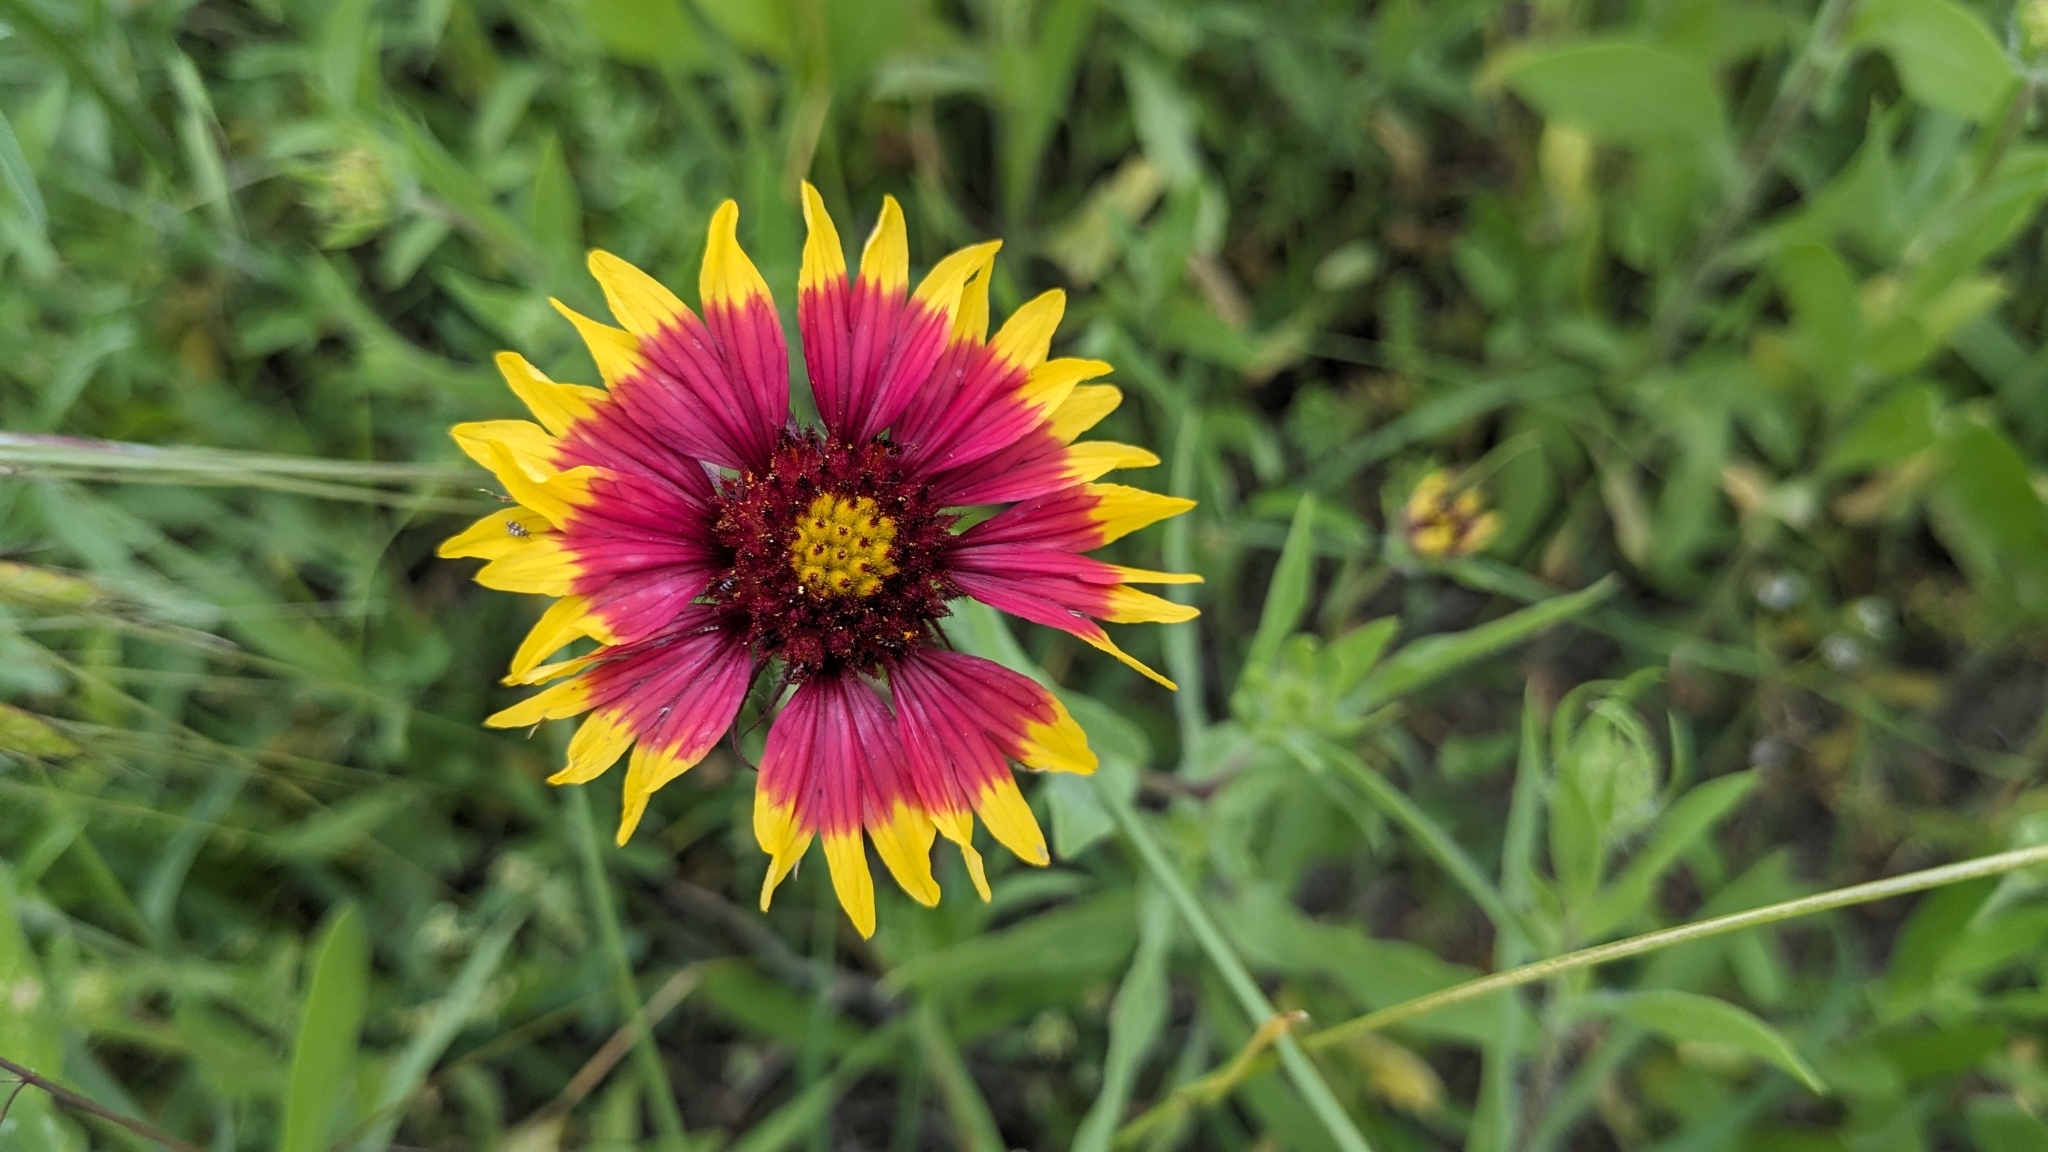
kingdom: Plantae
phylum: Tracheophyta
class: Magnoliopsida
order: Asterales
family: Asteraceae
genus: Gaillardia
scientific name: Gaillardia pulchella
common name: Firewheel
